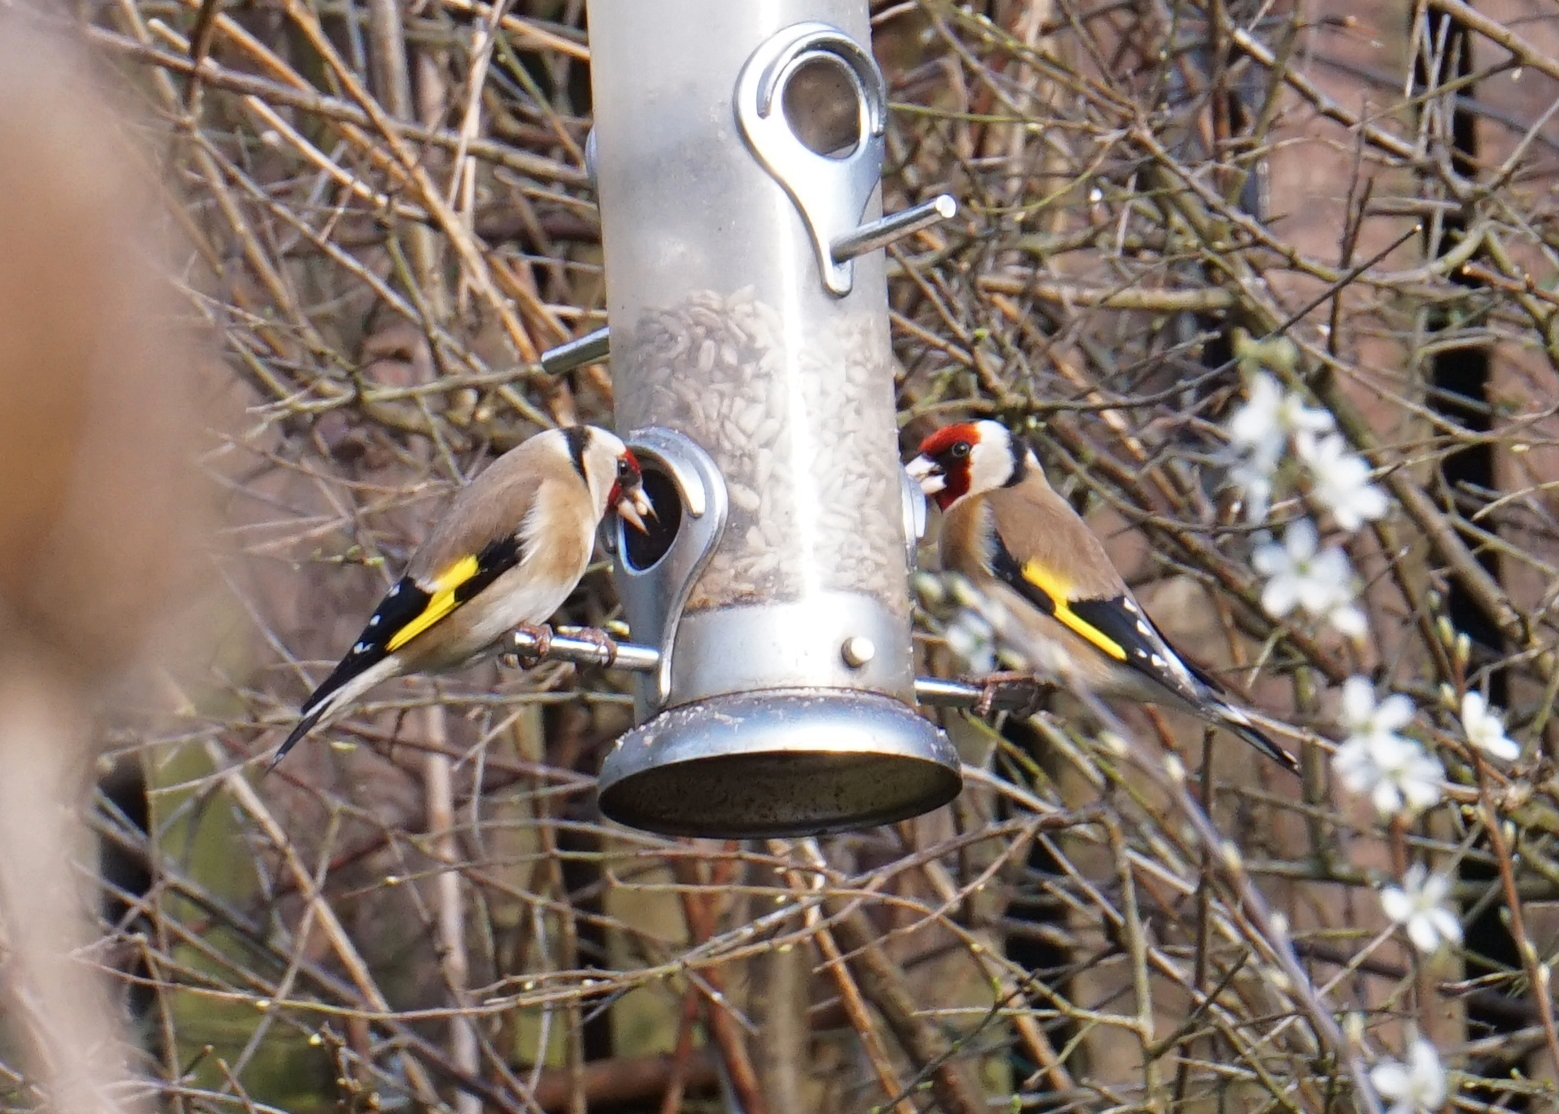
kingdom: Animalia
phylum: Chordata
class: Aves
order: Passeriformes
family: Fringillidae
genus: Carduelis
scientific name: Carduelis carduelis
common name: European goldfinch
